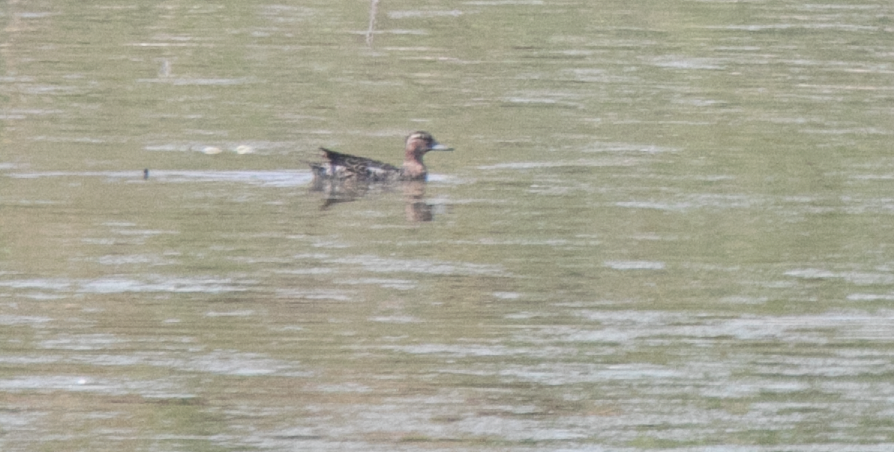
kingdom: Animalia
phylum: Chordata
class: Aves
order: Anseriformes
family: Anatidae
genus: Spatula
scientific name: Spatula querquedula
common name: Garganey
